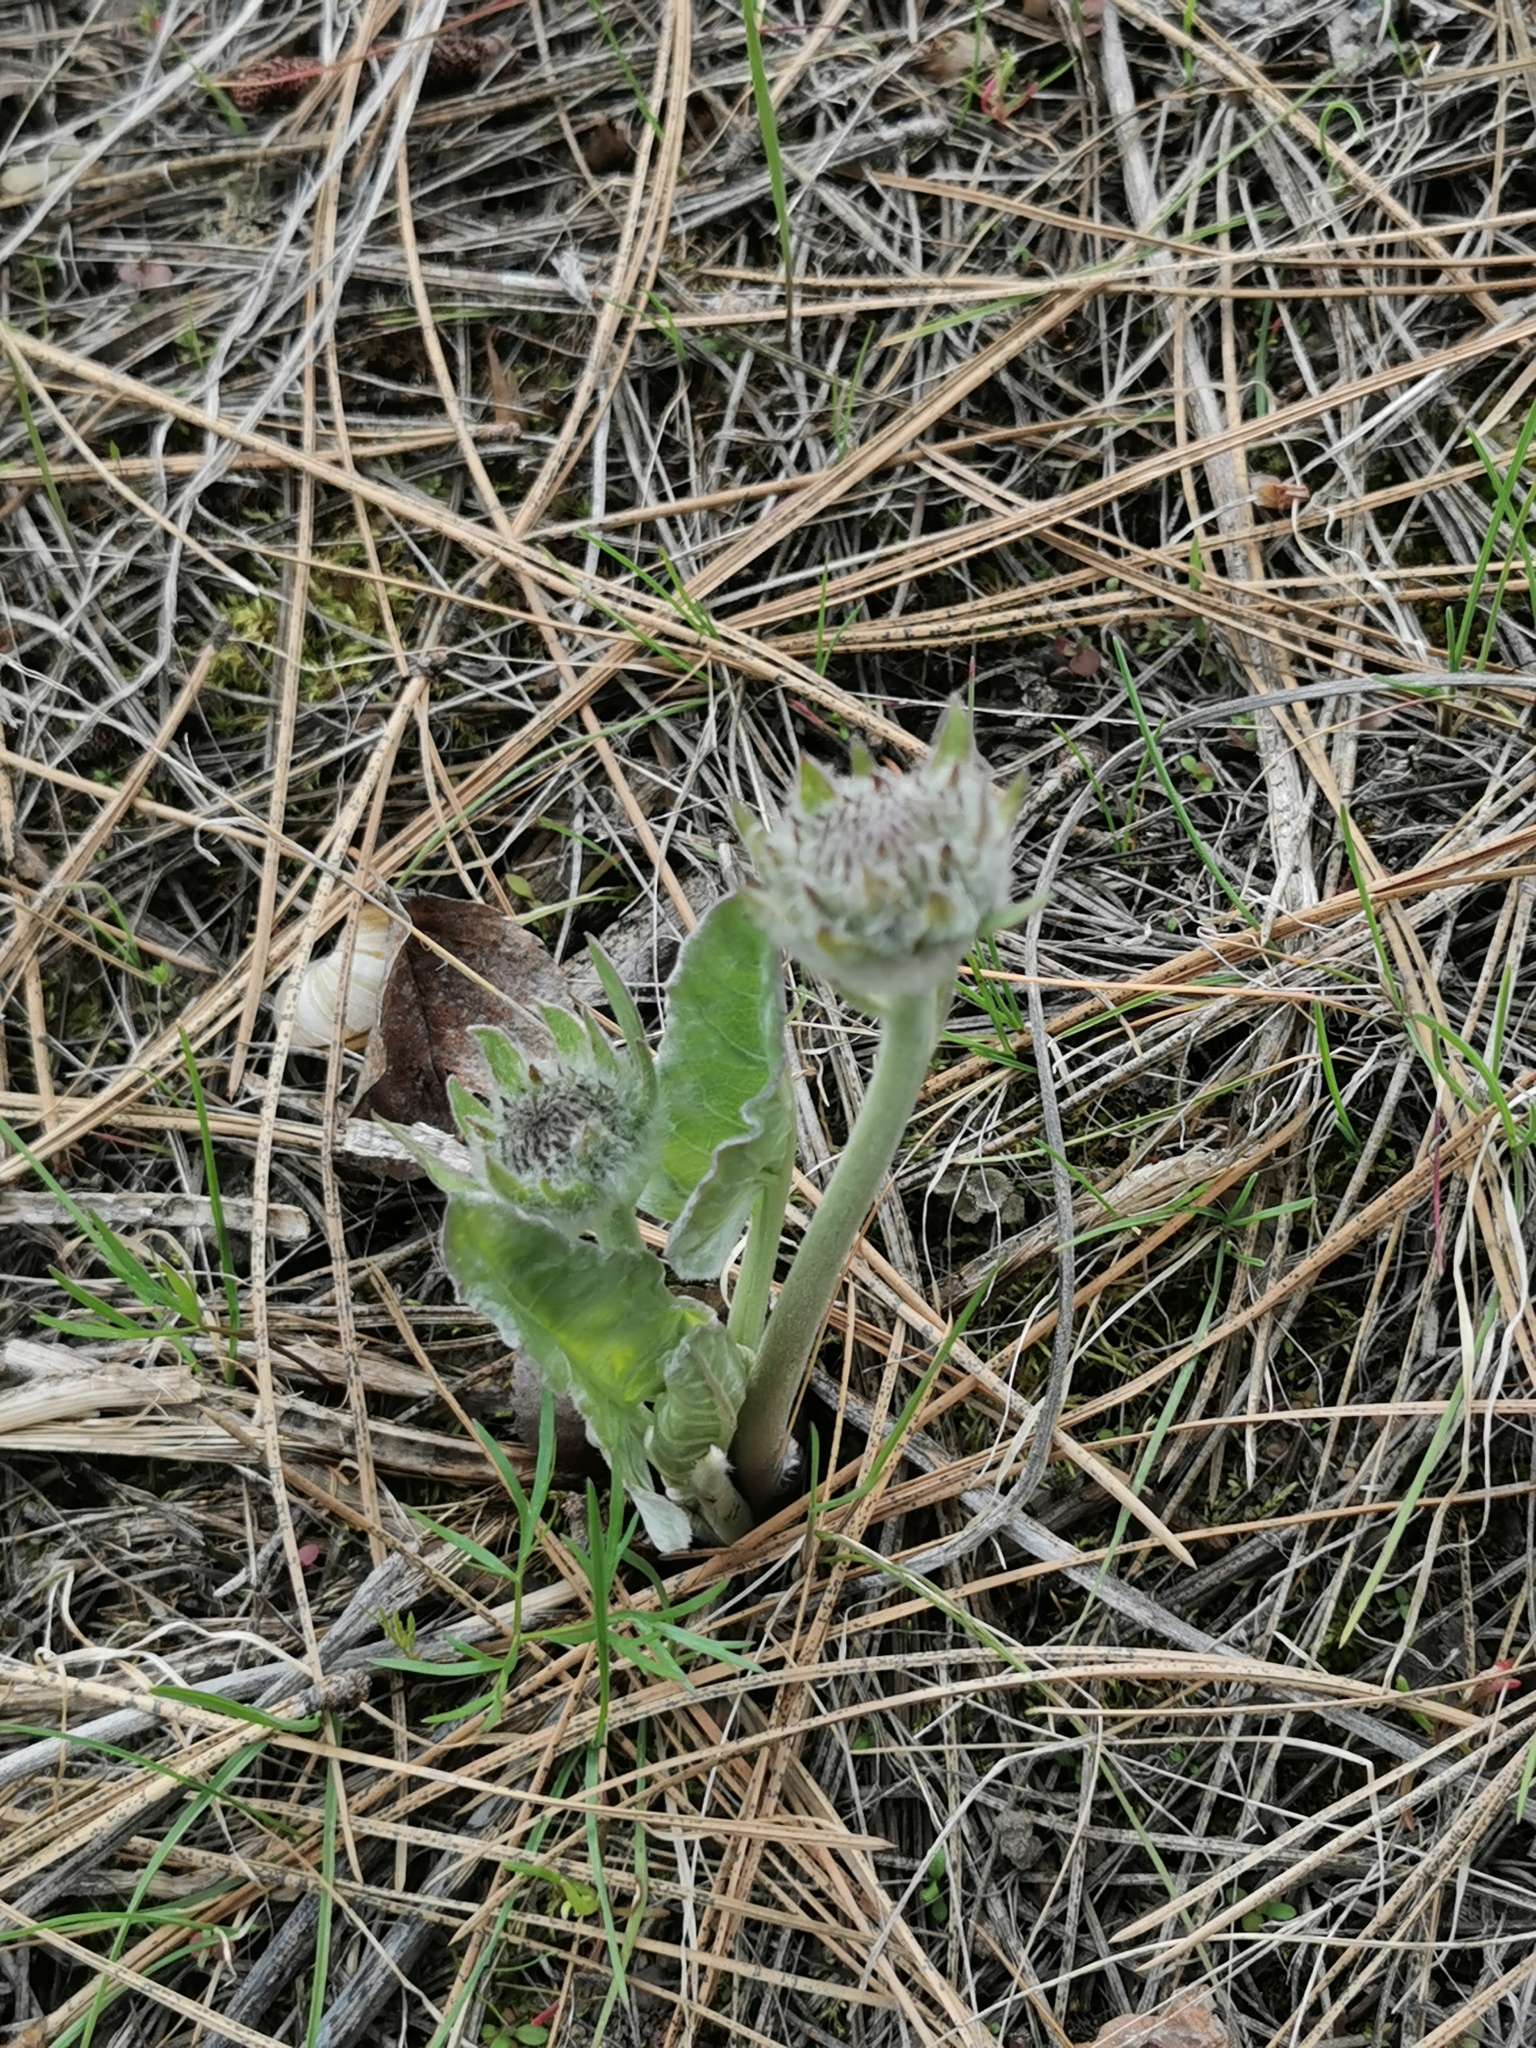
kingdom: Plantae
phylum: Tracheophyta
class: Magnoliopsida
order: Asterales
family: Asteraceae
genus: Wyethia
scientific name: Wyethia sagittata
